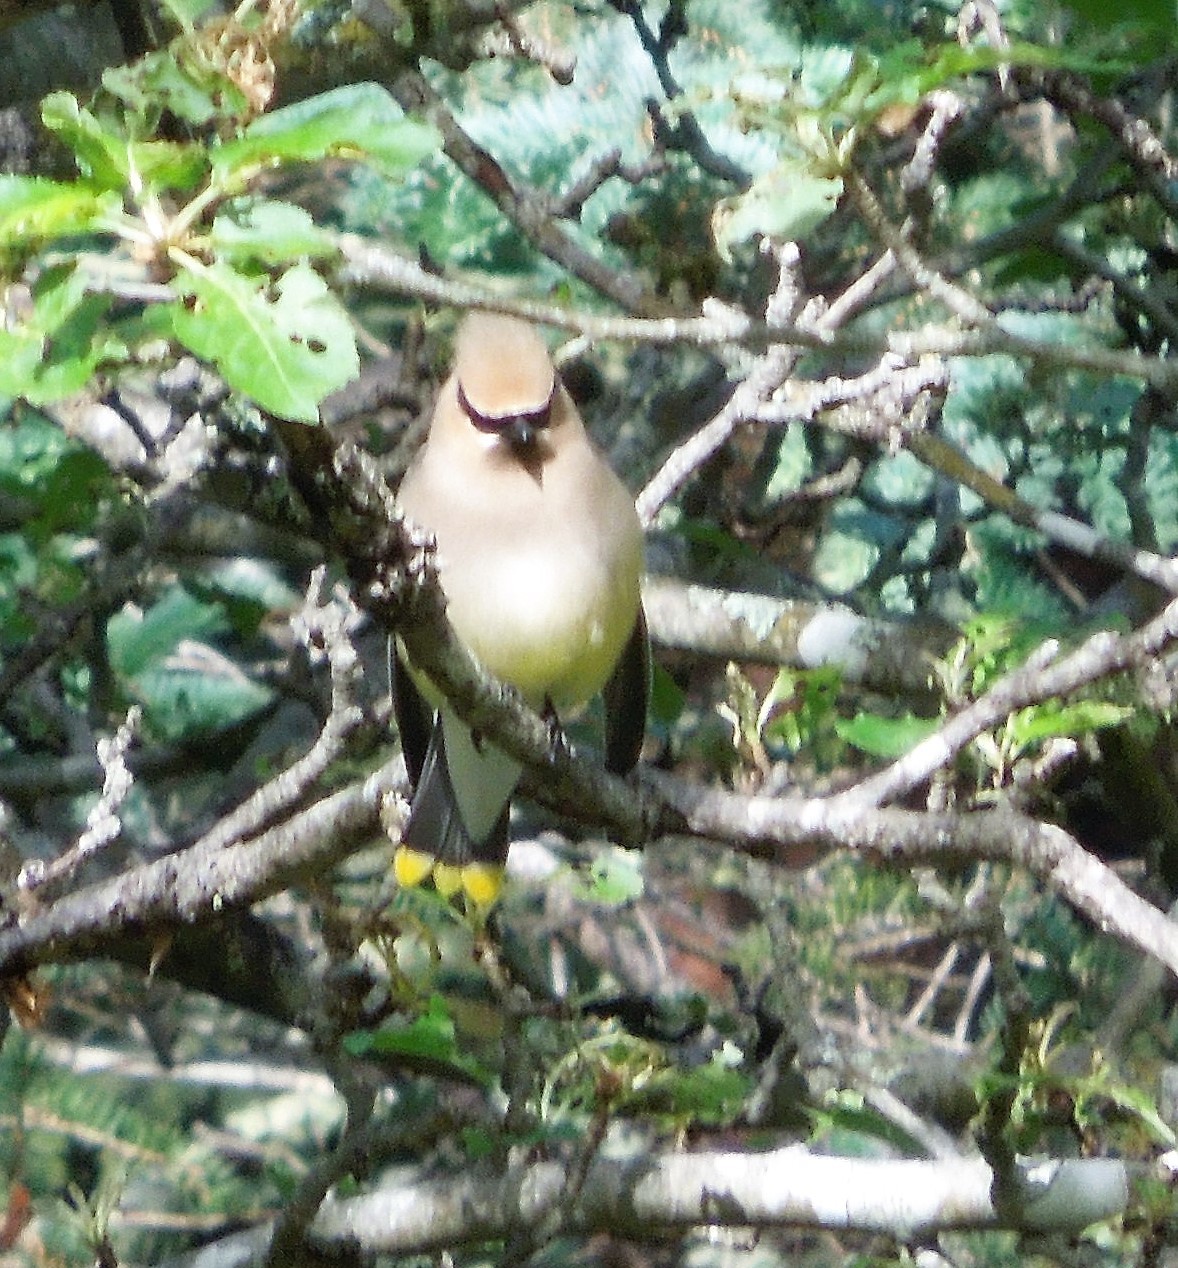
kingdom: Animalia
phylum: Chordata
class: Aves
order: Passeriformes
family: Bombycillidae
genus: Bombycilla
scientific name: Bombycilla cedrorum
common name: Cedar waxwing
